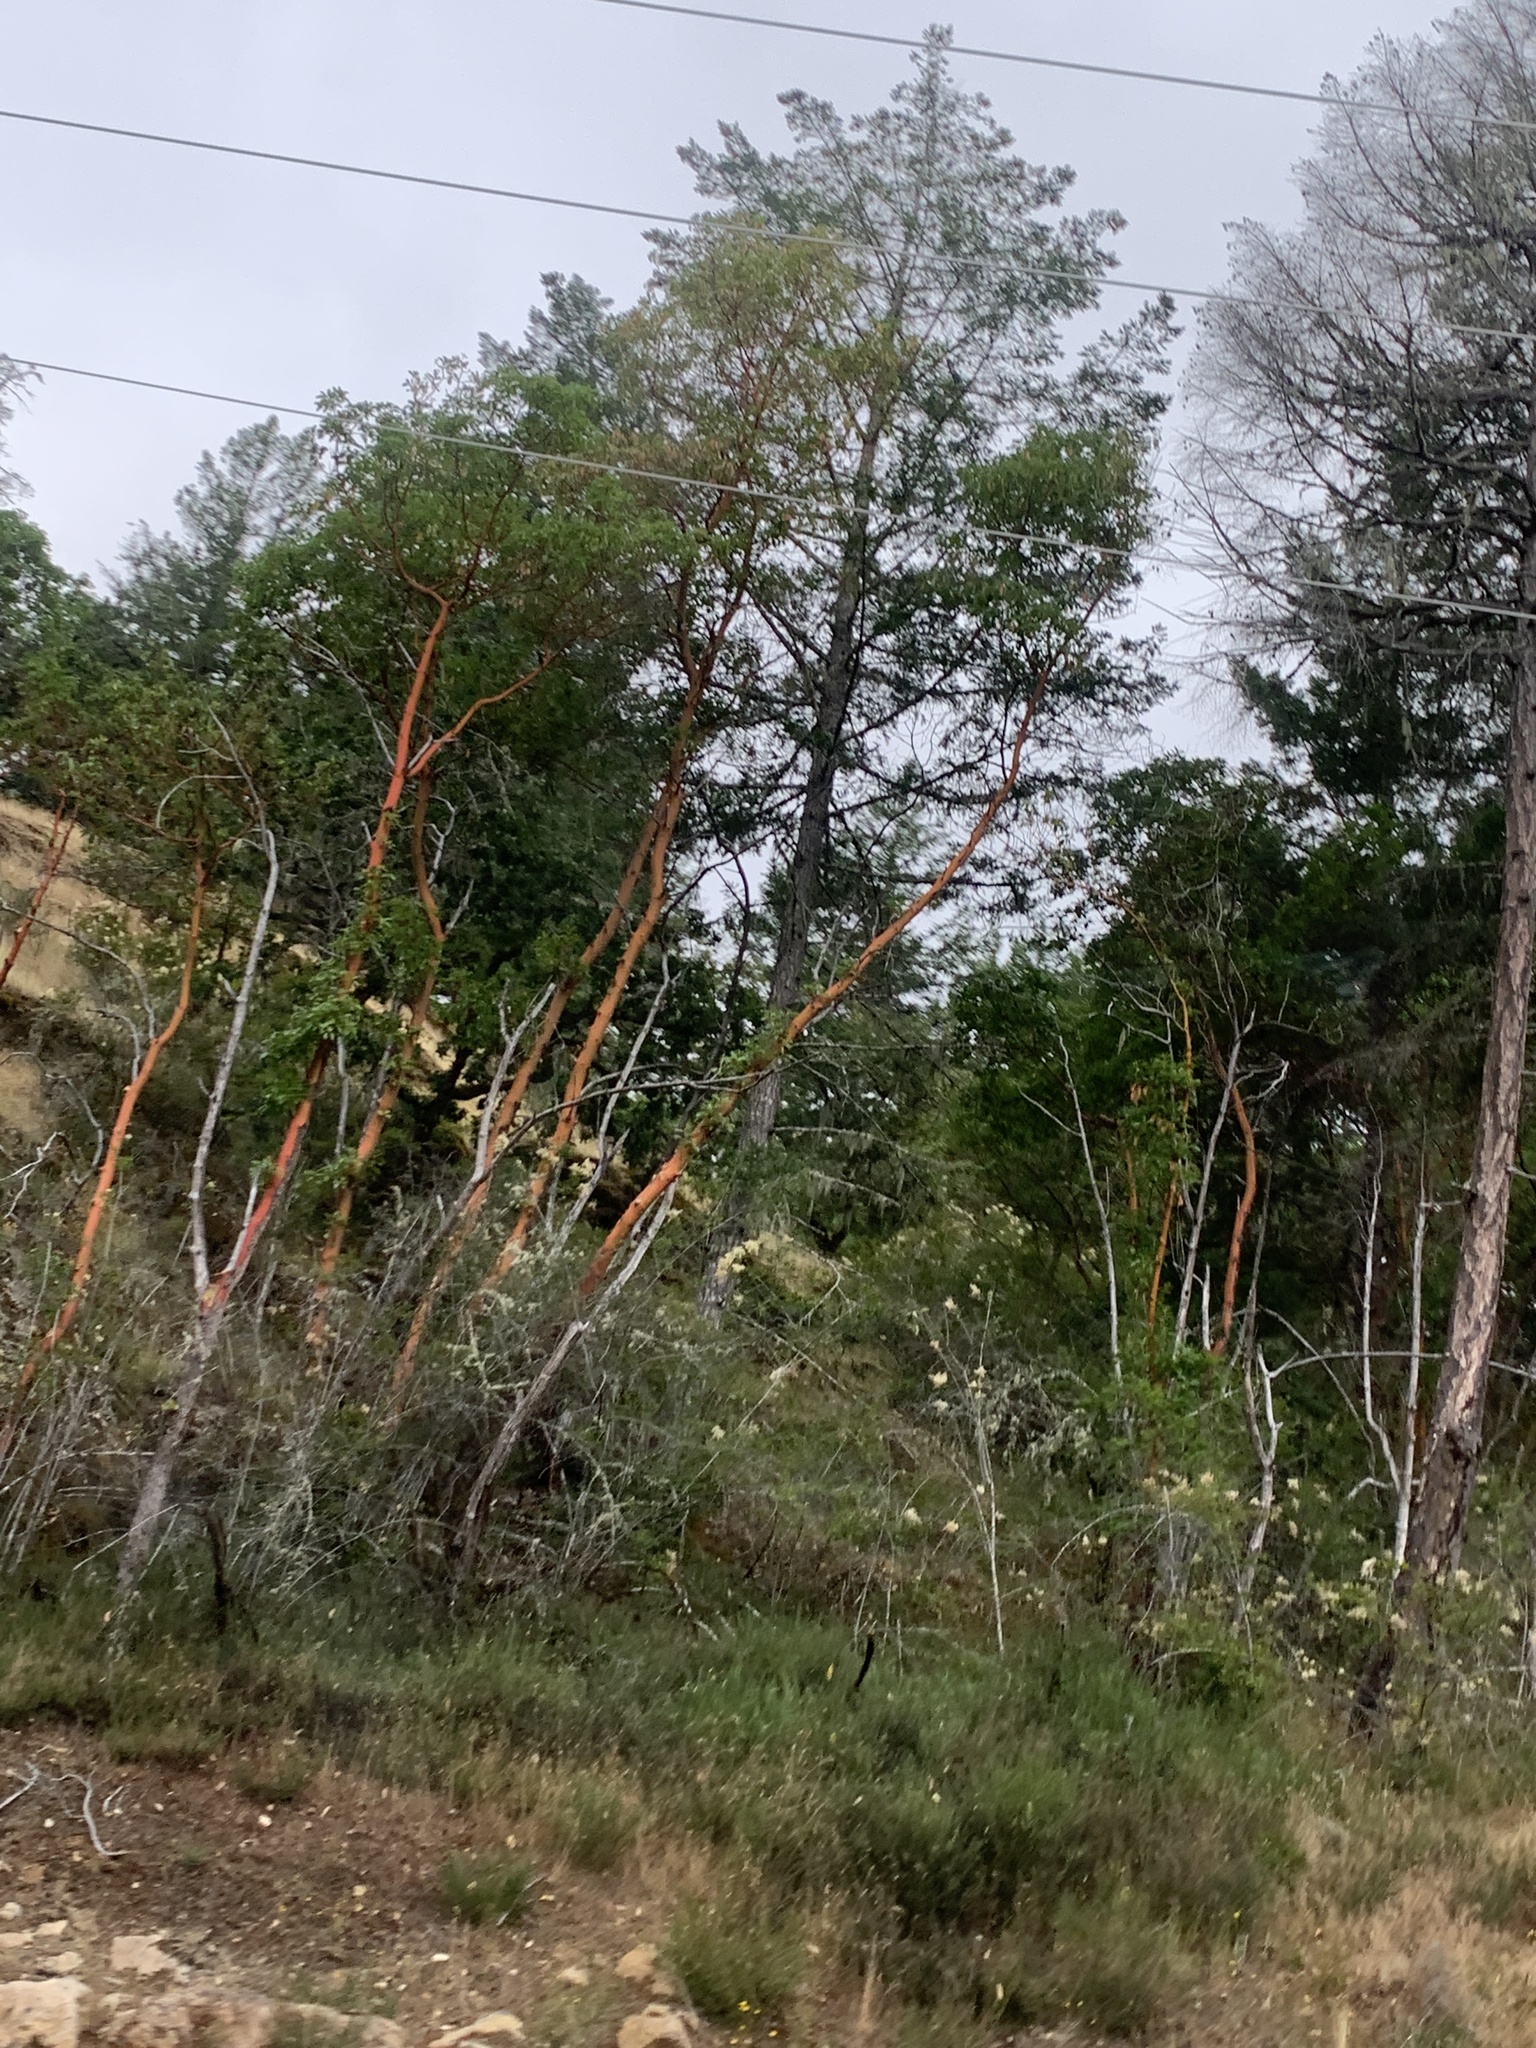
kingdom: Plantae
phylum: Tracheophyta
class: Magnoliopsida
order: Ericales
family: Ericaceae
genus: Arbutus
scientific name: Arbutus menziesii
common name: Pacific madrone
